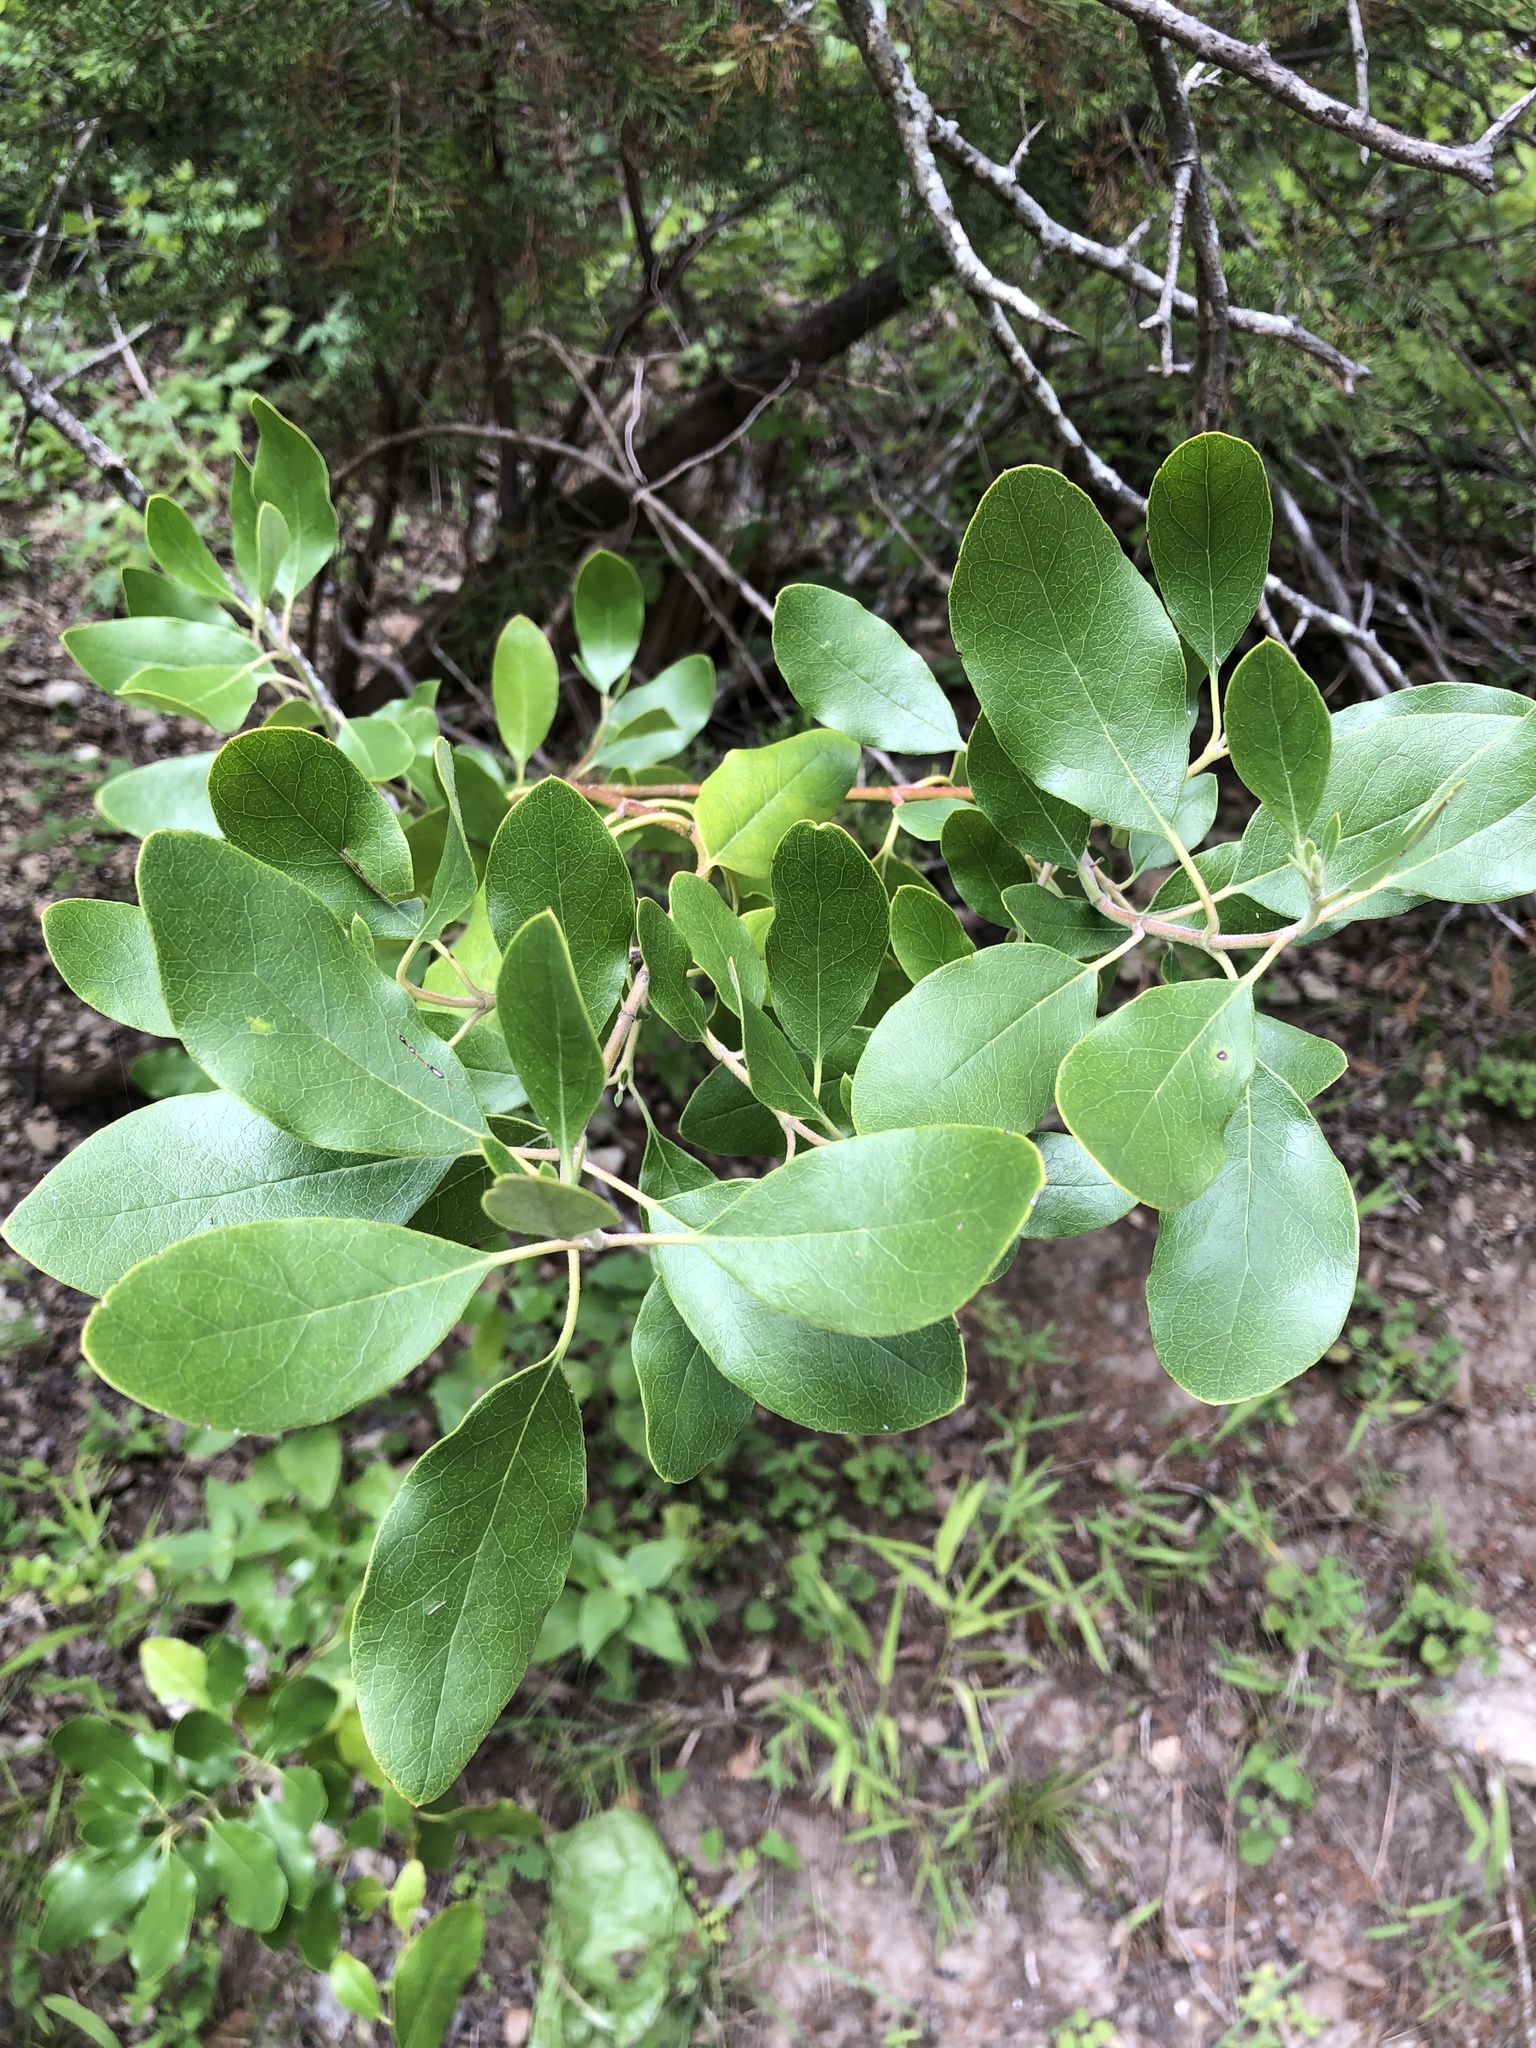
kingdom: Plantae
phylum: Tracheophyta
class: Magnoliopsida
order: Garryales
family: Garryaceae
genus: Garrya
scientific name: Garrya lindheimeri
